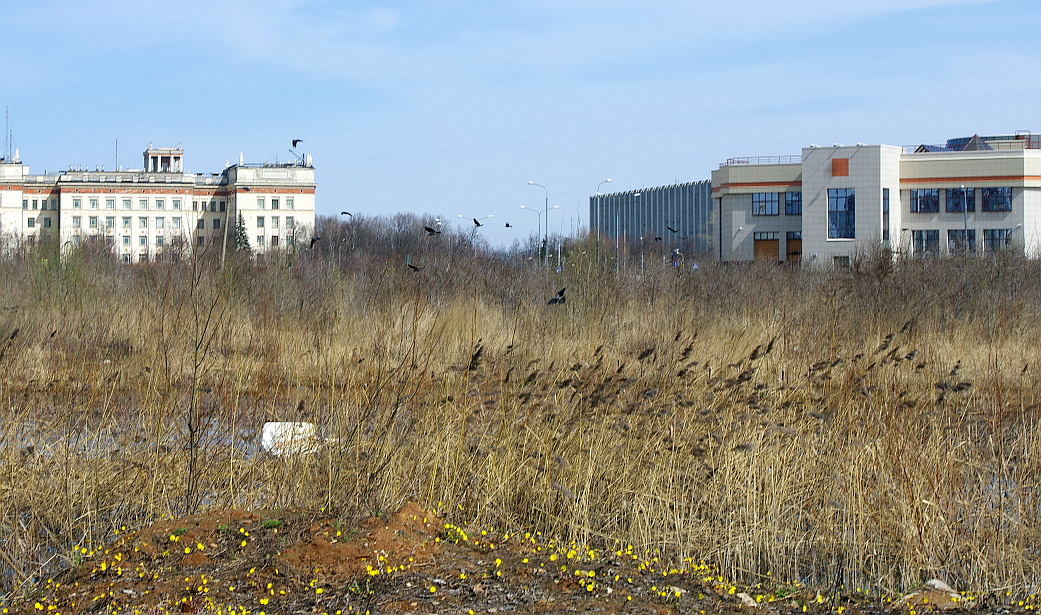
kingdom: Plantae
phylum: Tracheophyta
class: Liliopsida
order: Poales
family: Poaceae
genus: Phragmites
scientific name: Phragmites australis
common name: Common reed
